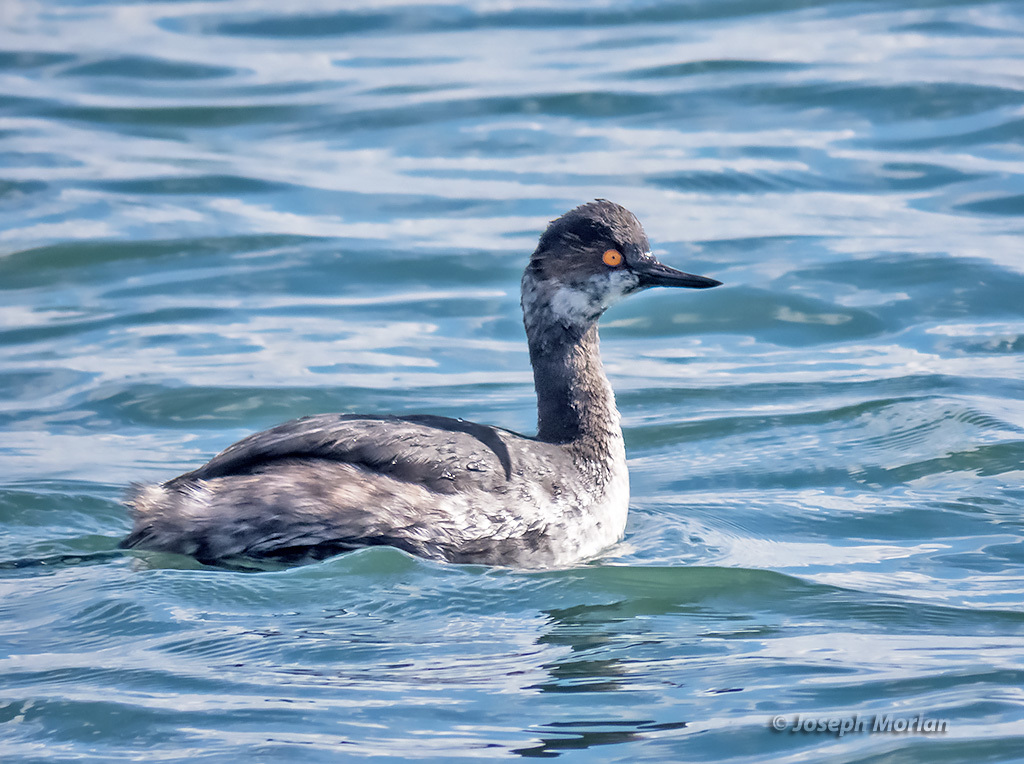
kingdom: Animalia
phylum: Chordata
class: Aves
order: Podicipediformes
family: Podicipedidae
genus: Podiceps
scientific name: Podiceps nigricollis
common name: Black-necked grebe
